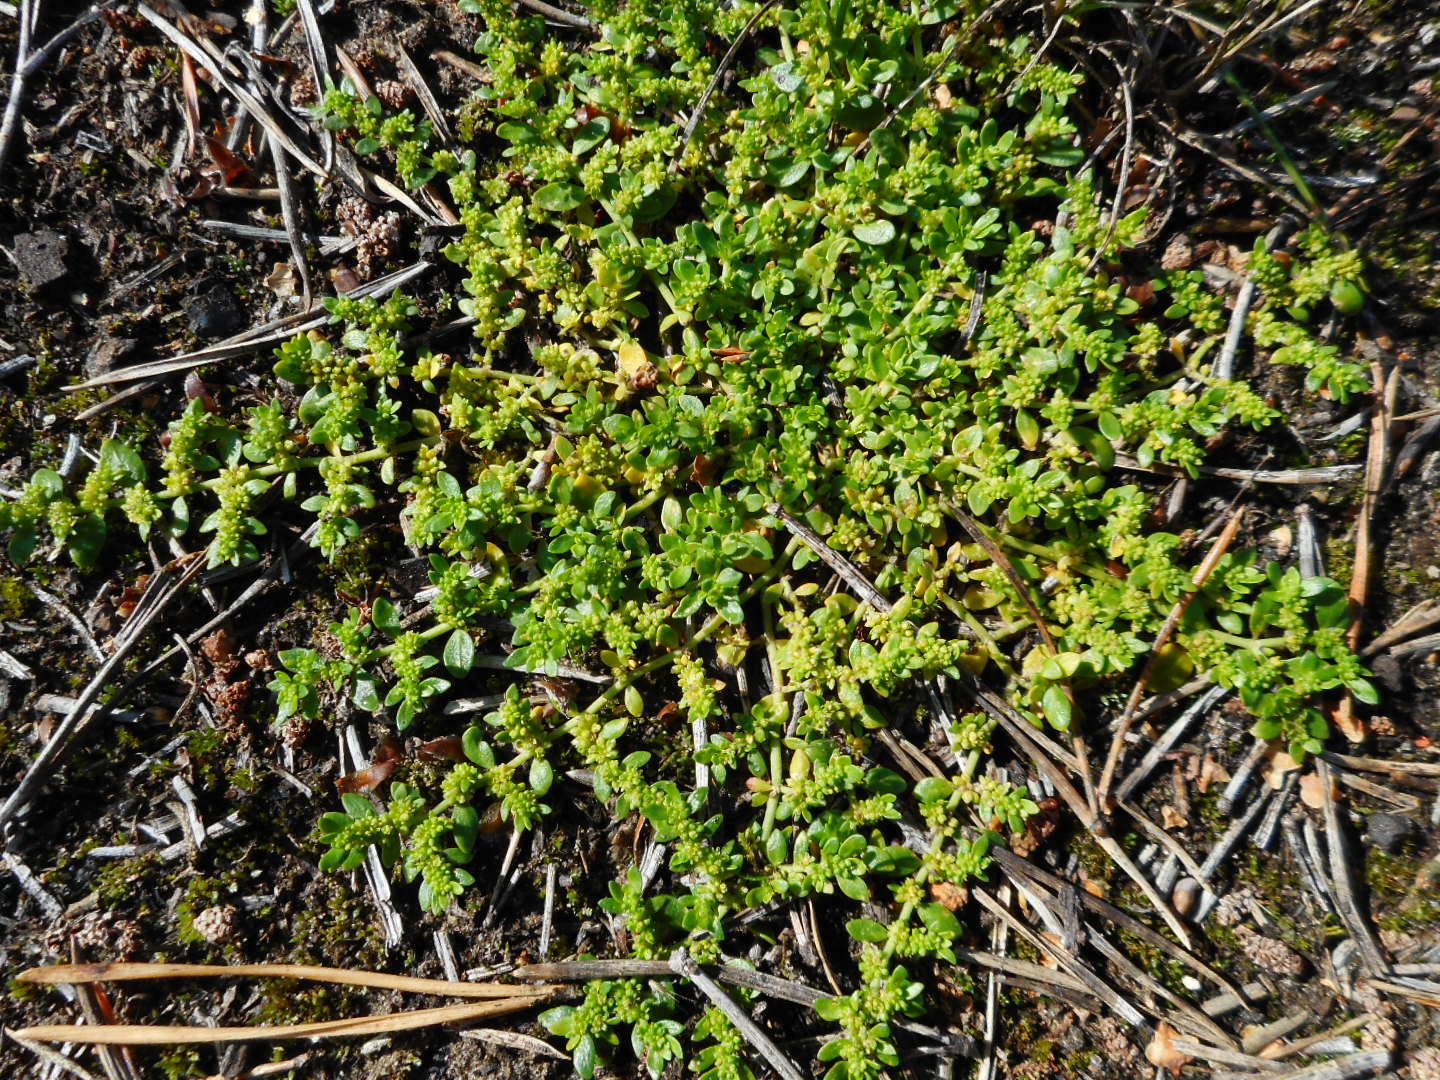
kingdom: Plantae
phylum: Tracheophyta
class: Magnoliopsida
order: Caryophyllales
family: Caryophyllaceae
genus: Herniaria
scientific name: Herniaria glabra
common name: Smooth rupturewort
